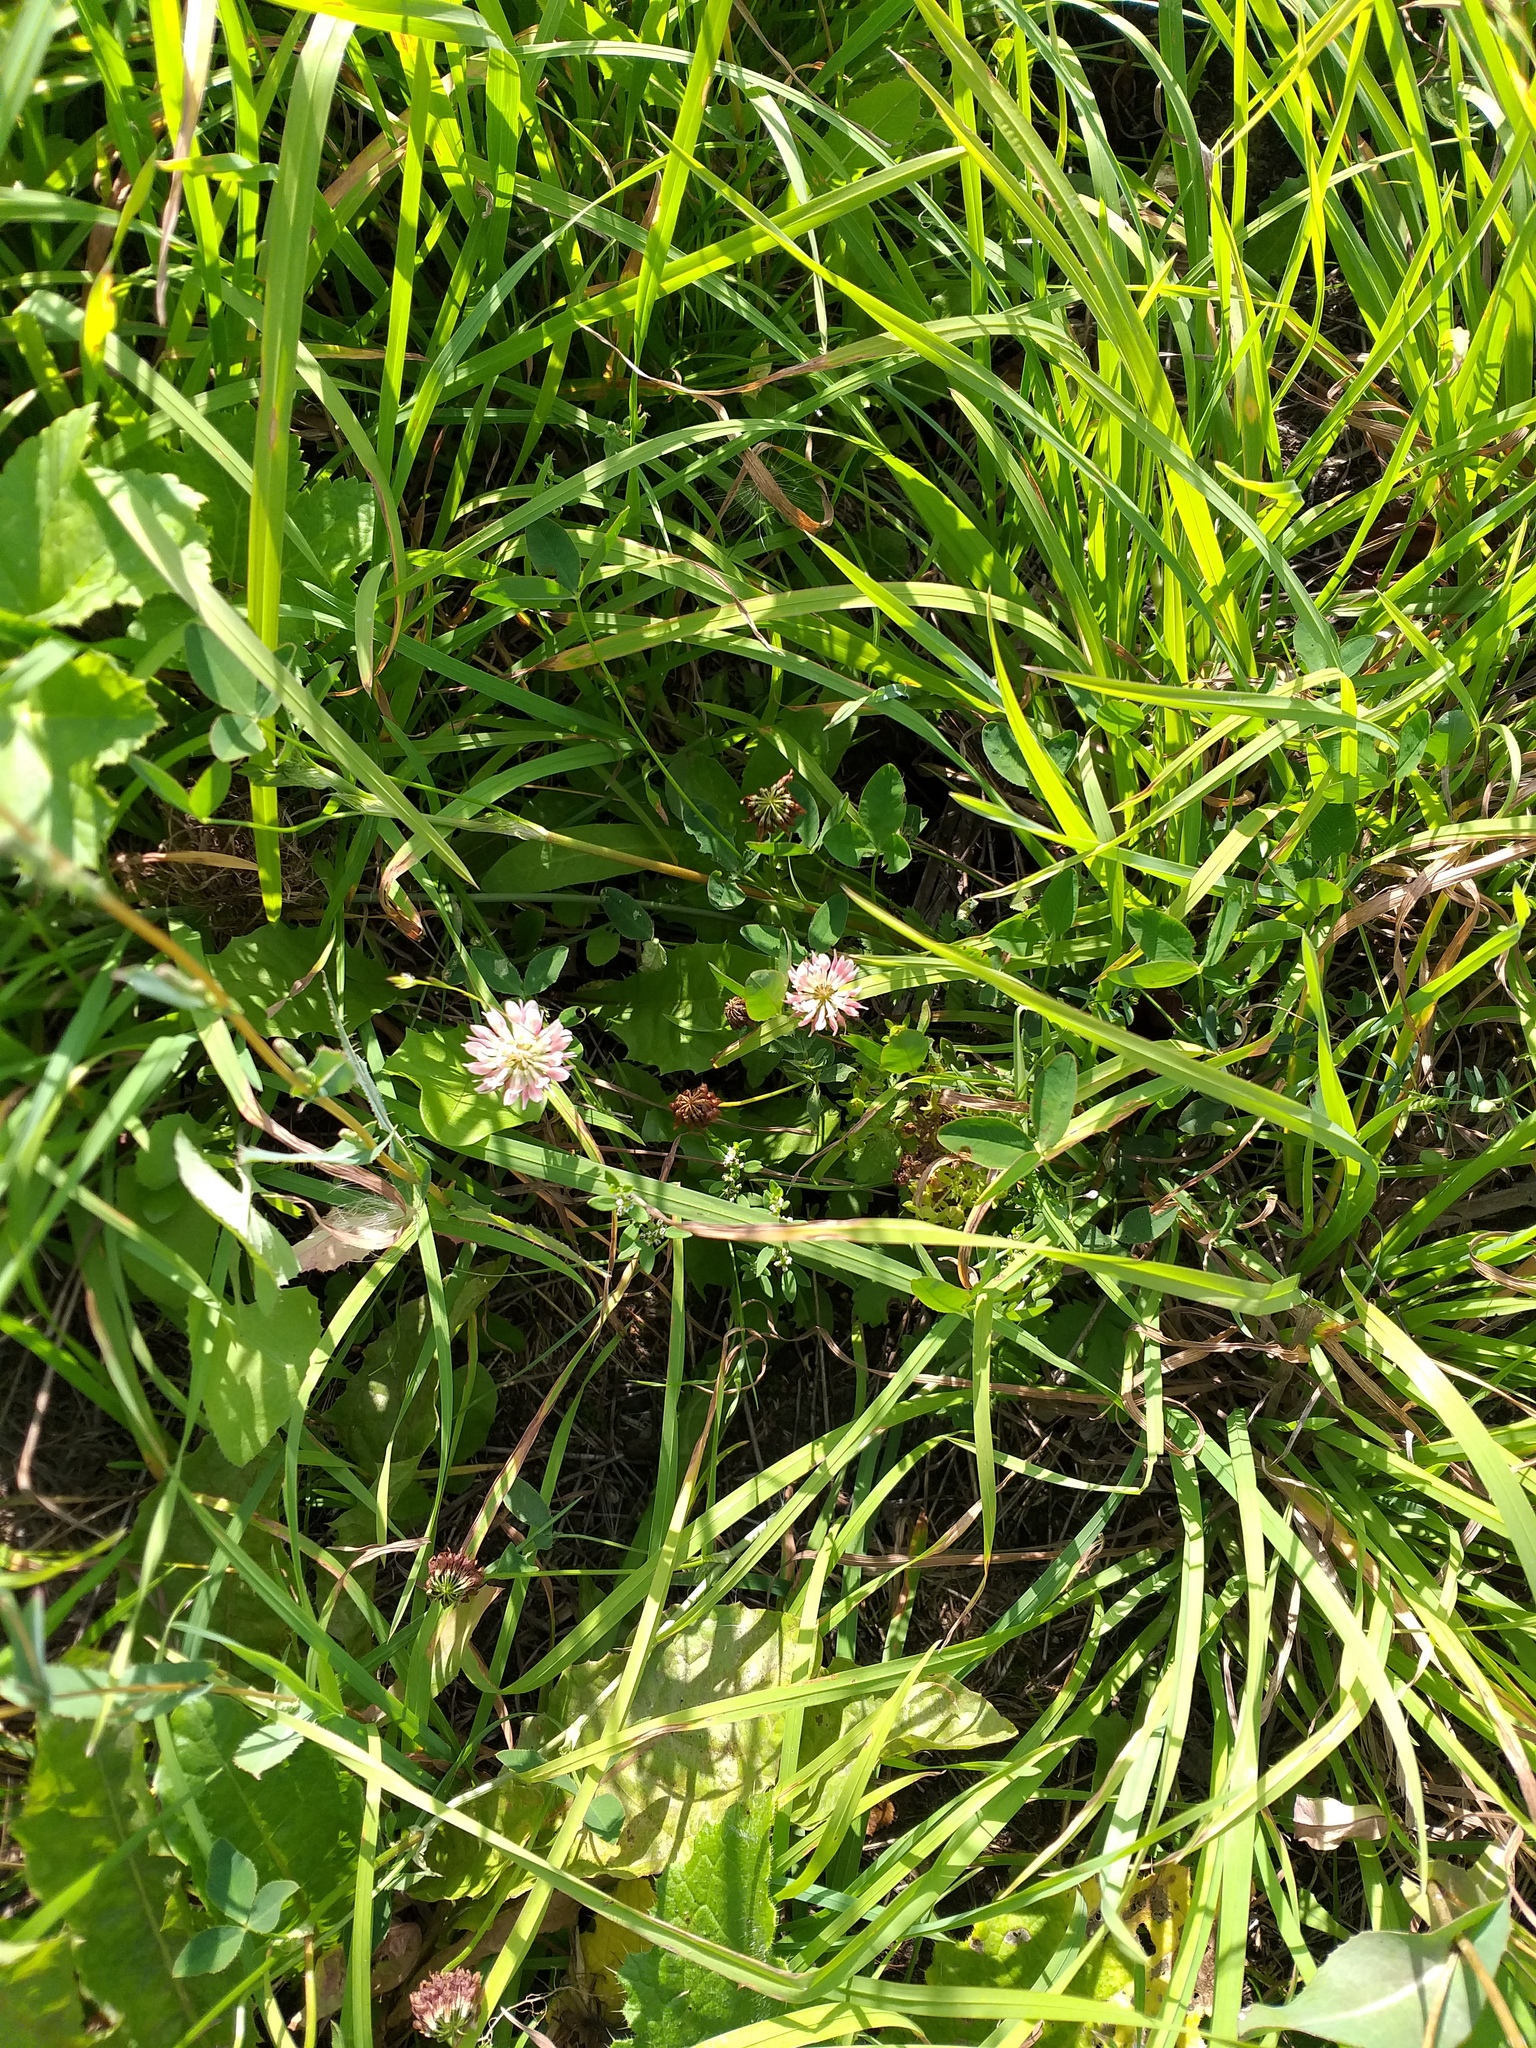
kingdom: Plantae
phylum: Tracheophyta
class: Magnoliopsida
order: Fabales
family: Fabaceae
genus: Trifolium
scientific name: Trifolium hybridum
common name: Alsike clover
